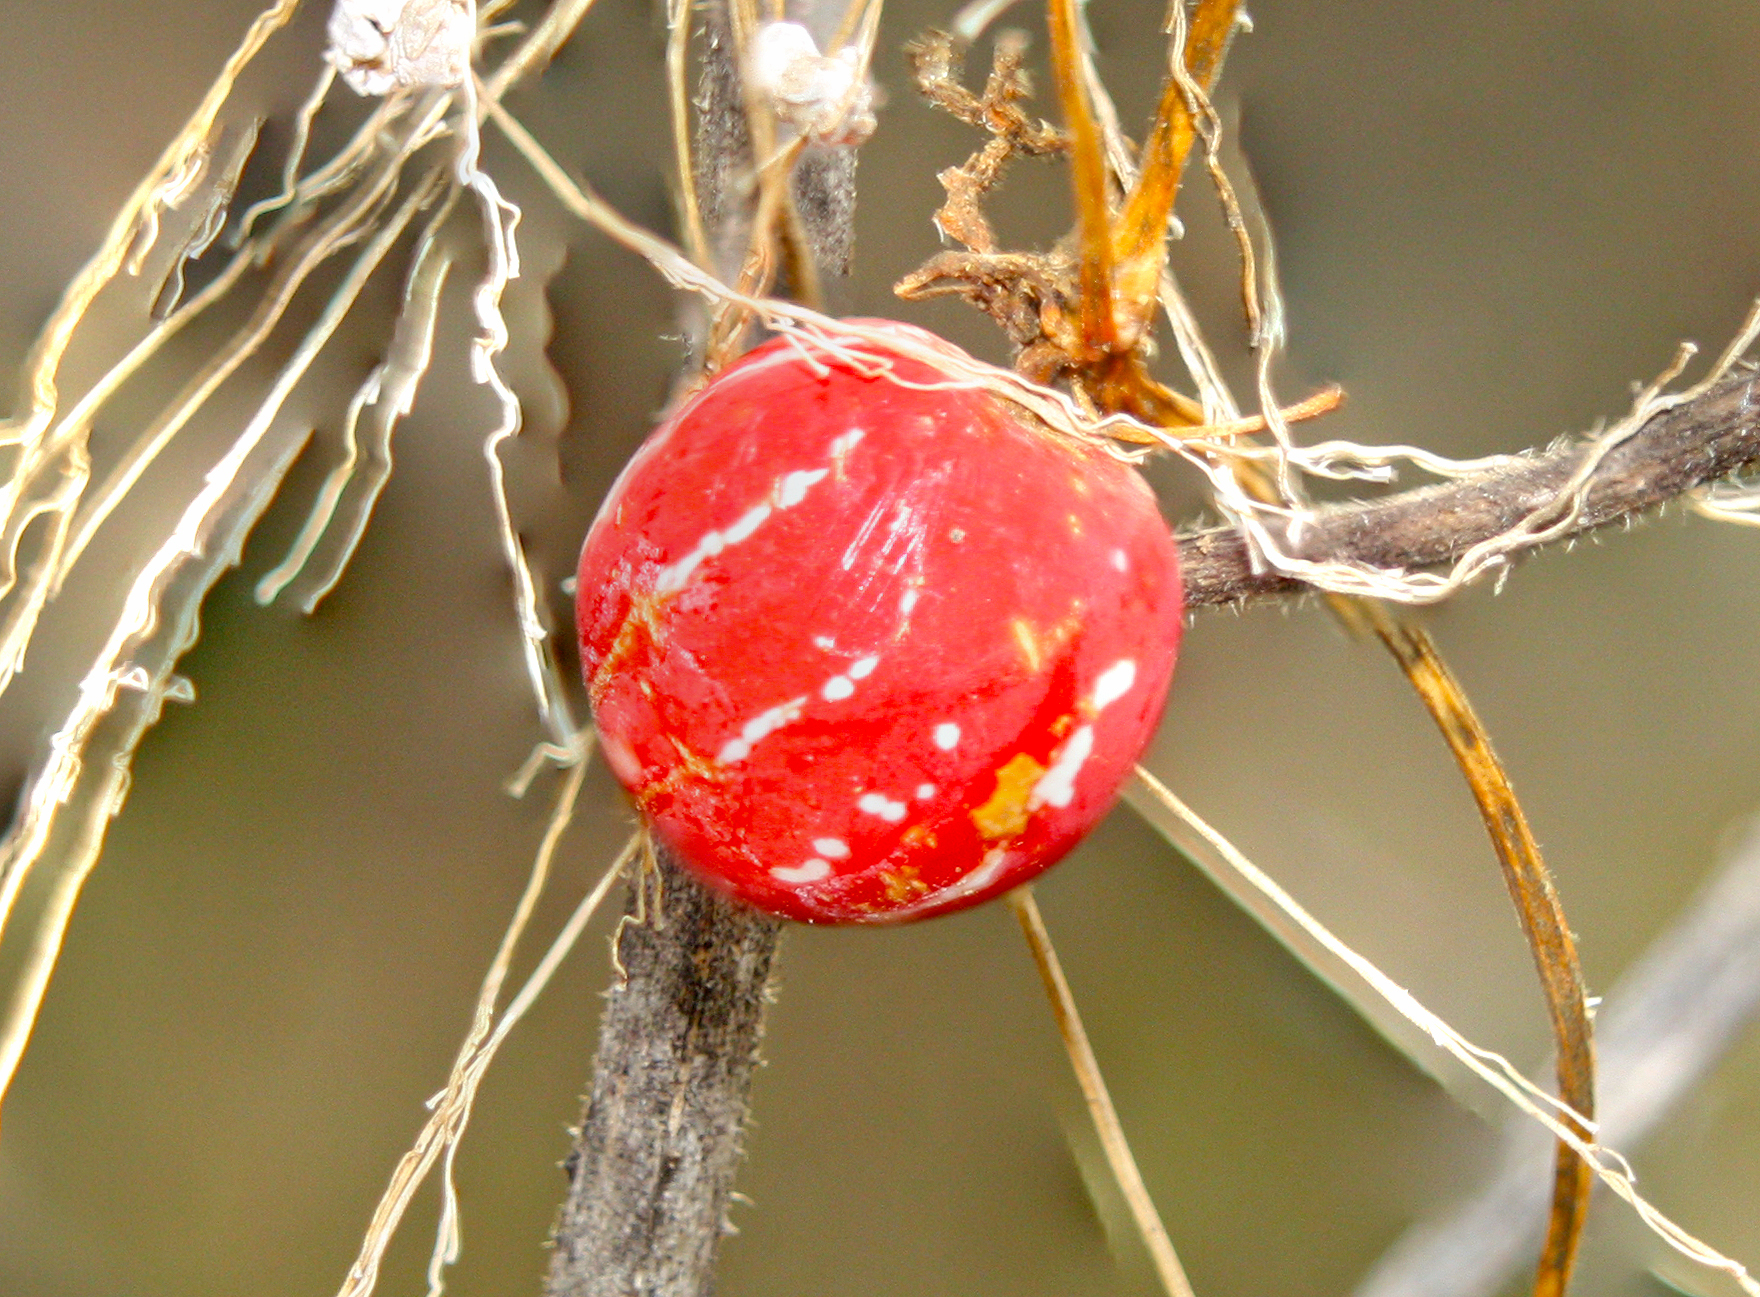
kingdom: Plantae
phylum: Tracheophyta
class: Magnoliopsida
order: Cucurbitales
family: Cucurbitaceae
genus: Diplocyclos
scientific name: Diplocyclos palmatus
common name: Striped-cucumber
